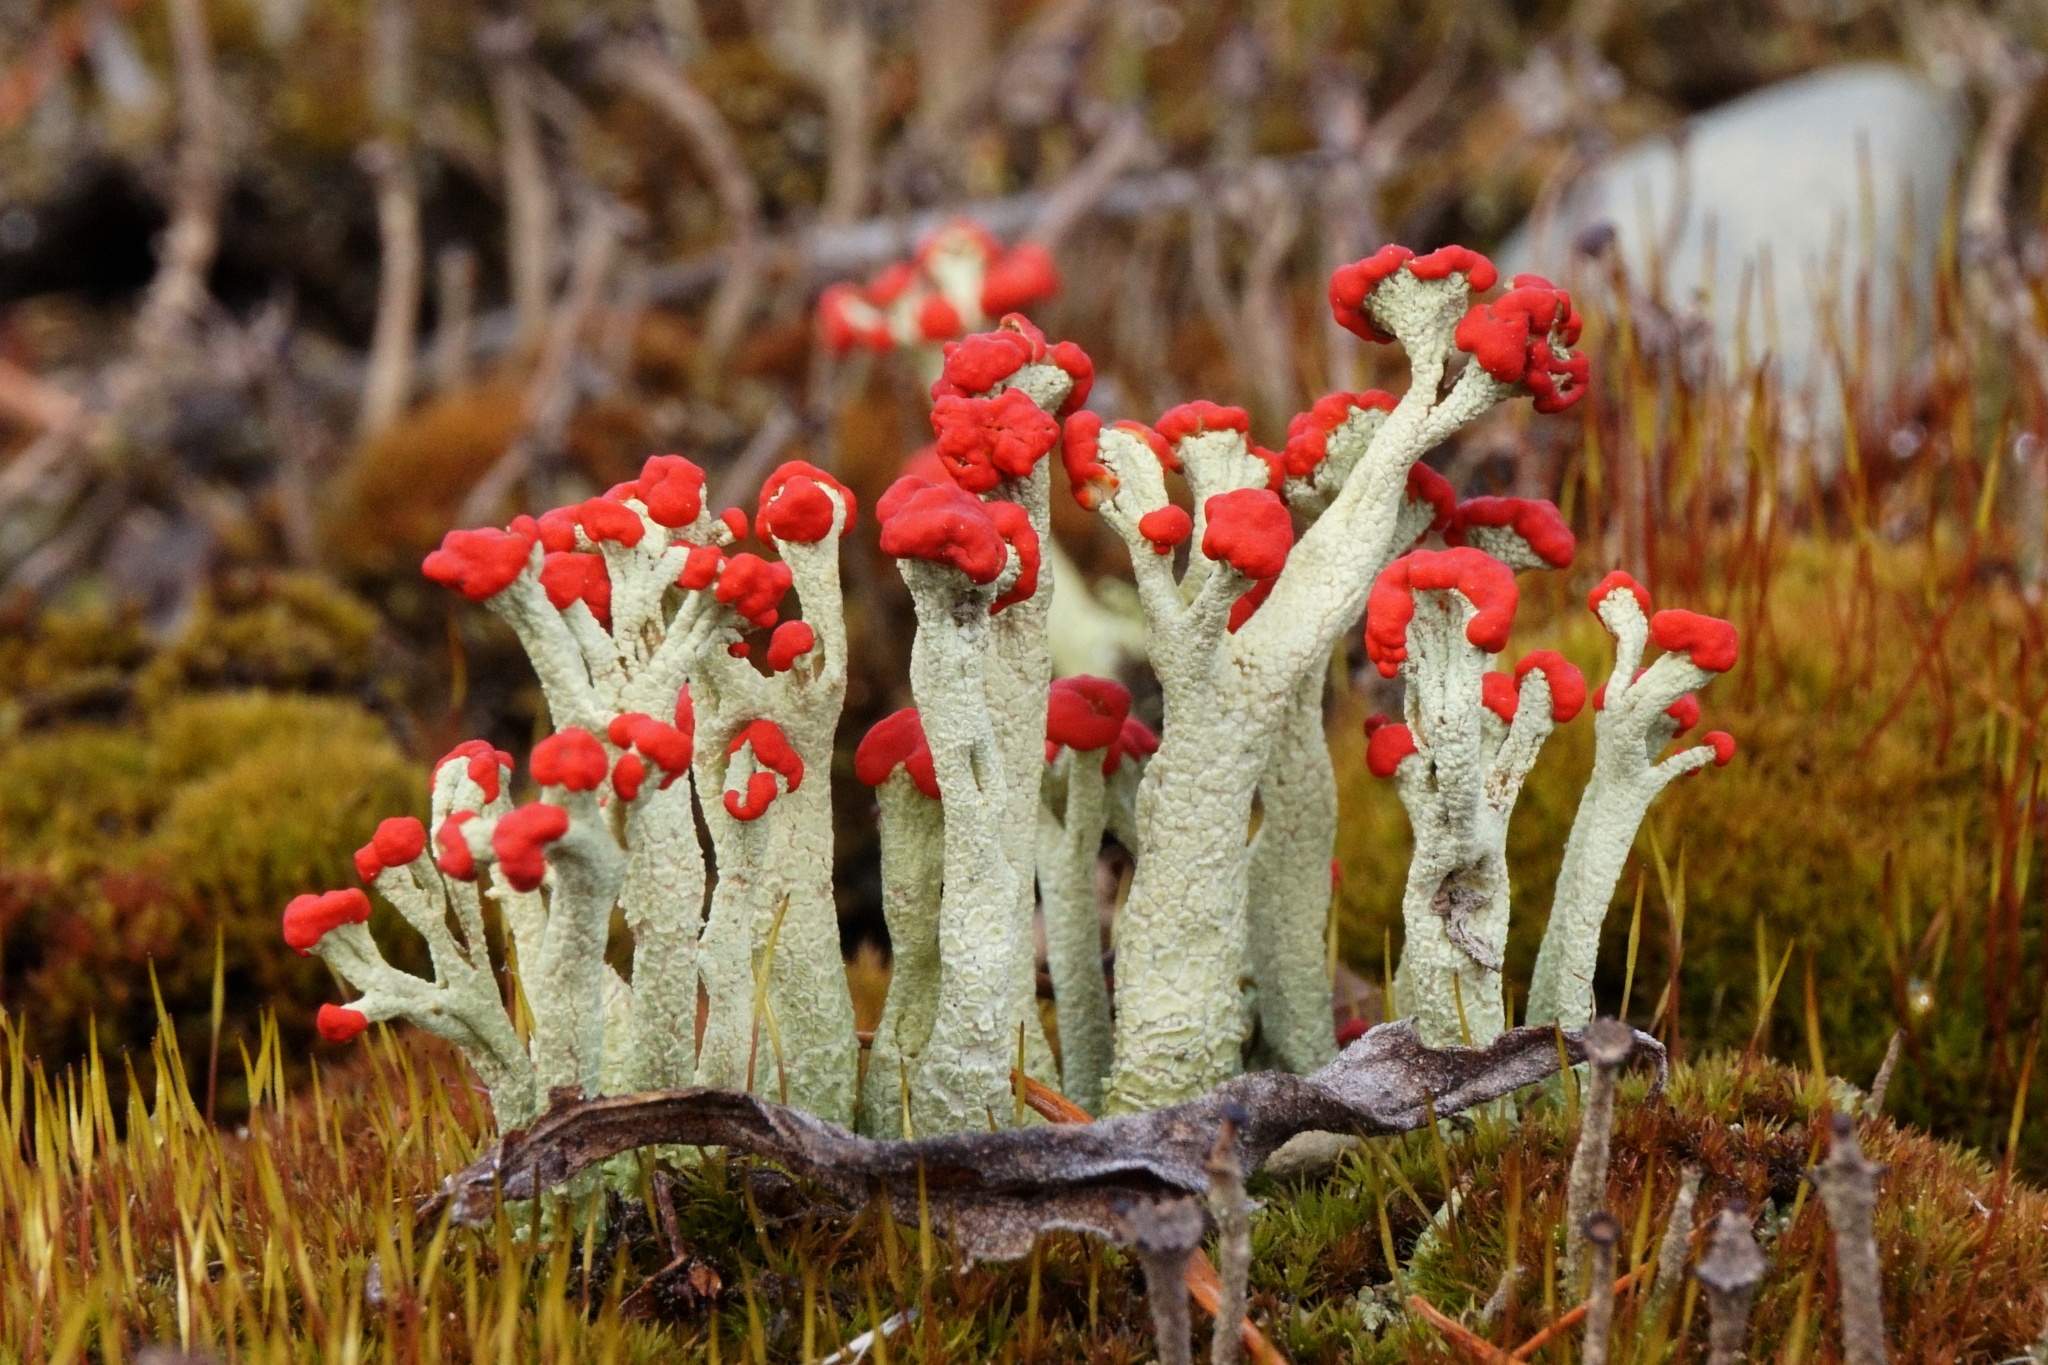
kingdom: Fungi
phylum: Ascomycota
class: Lecanoromycetes
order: Lecanorales
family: Cladoniaceae
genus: Cladonia
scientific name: Cladonia cristatella
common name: British soldier lichen
